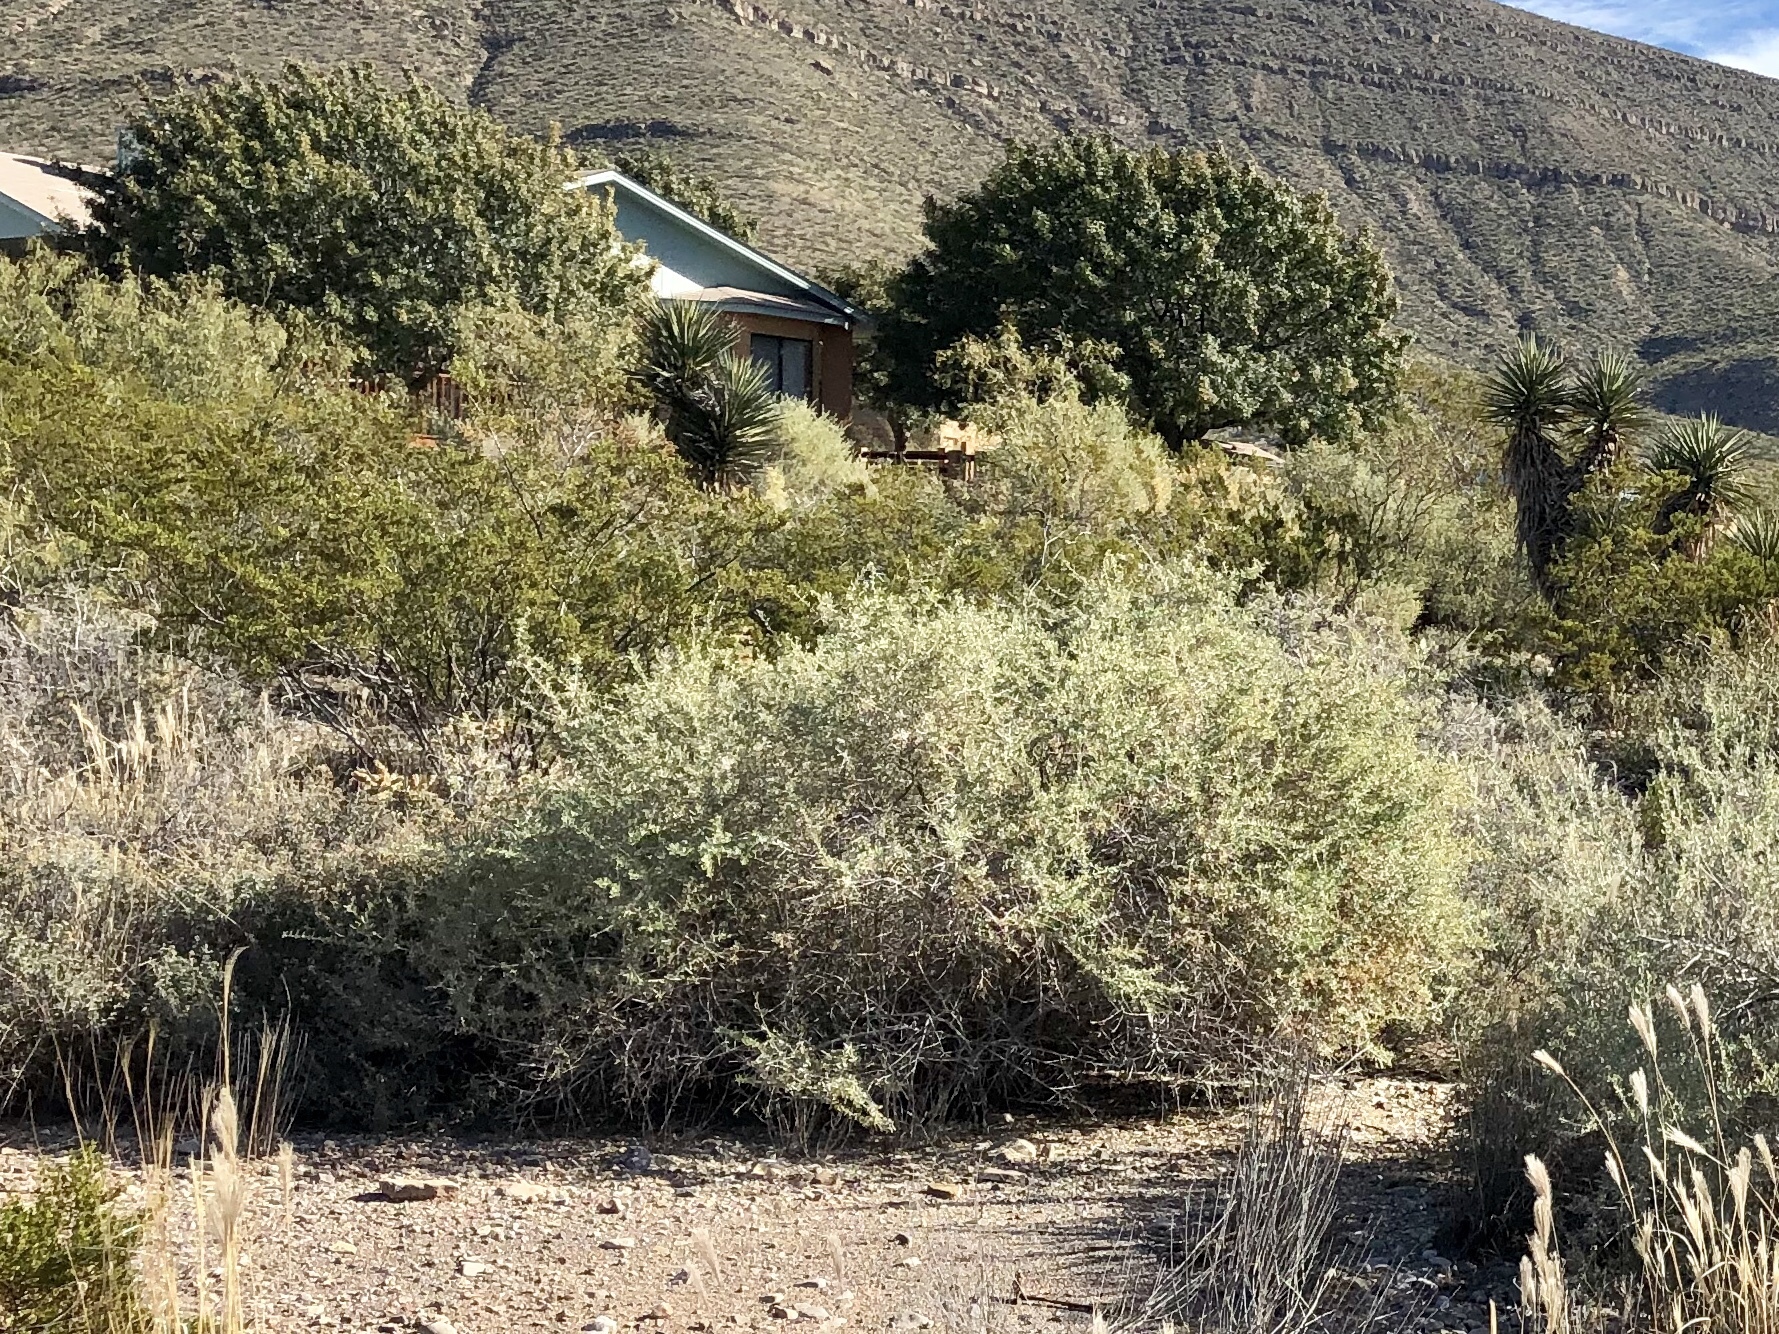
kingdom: Plantae
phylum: Tracheophyta
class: Magnoliopsida
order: Caryophyllales
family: Amaranthaceae
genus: Atriplex
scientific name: Atriplex canescens
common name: Four-wing saltbush
